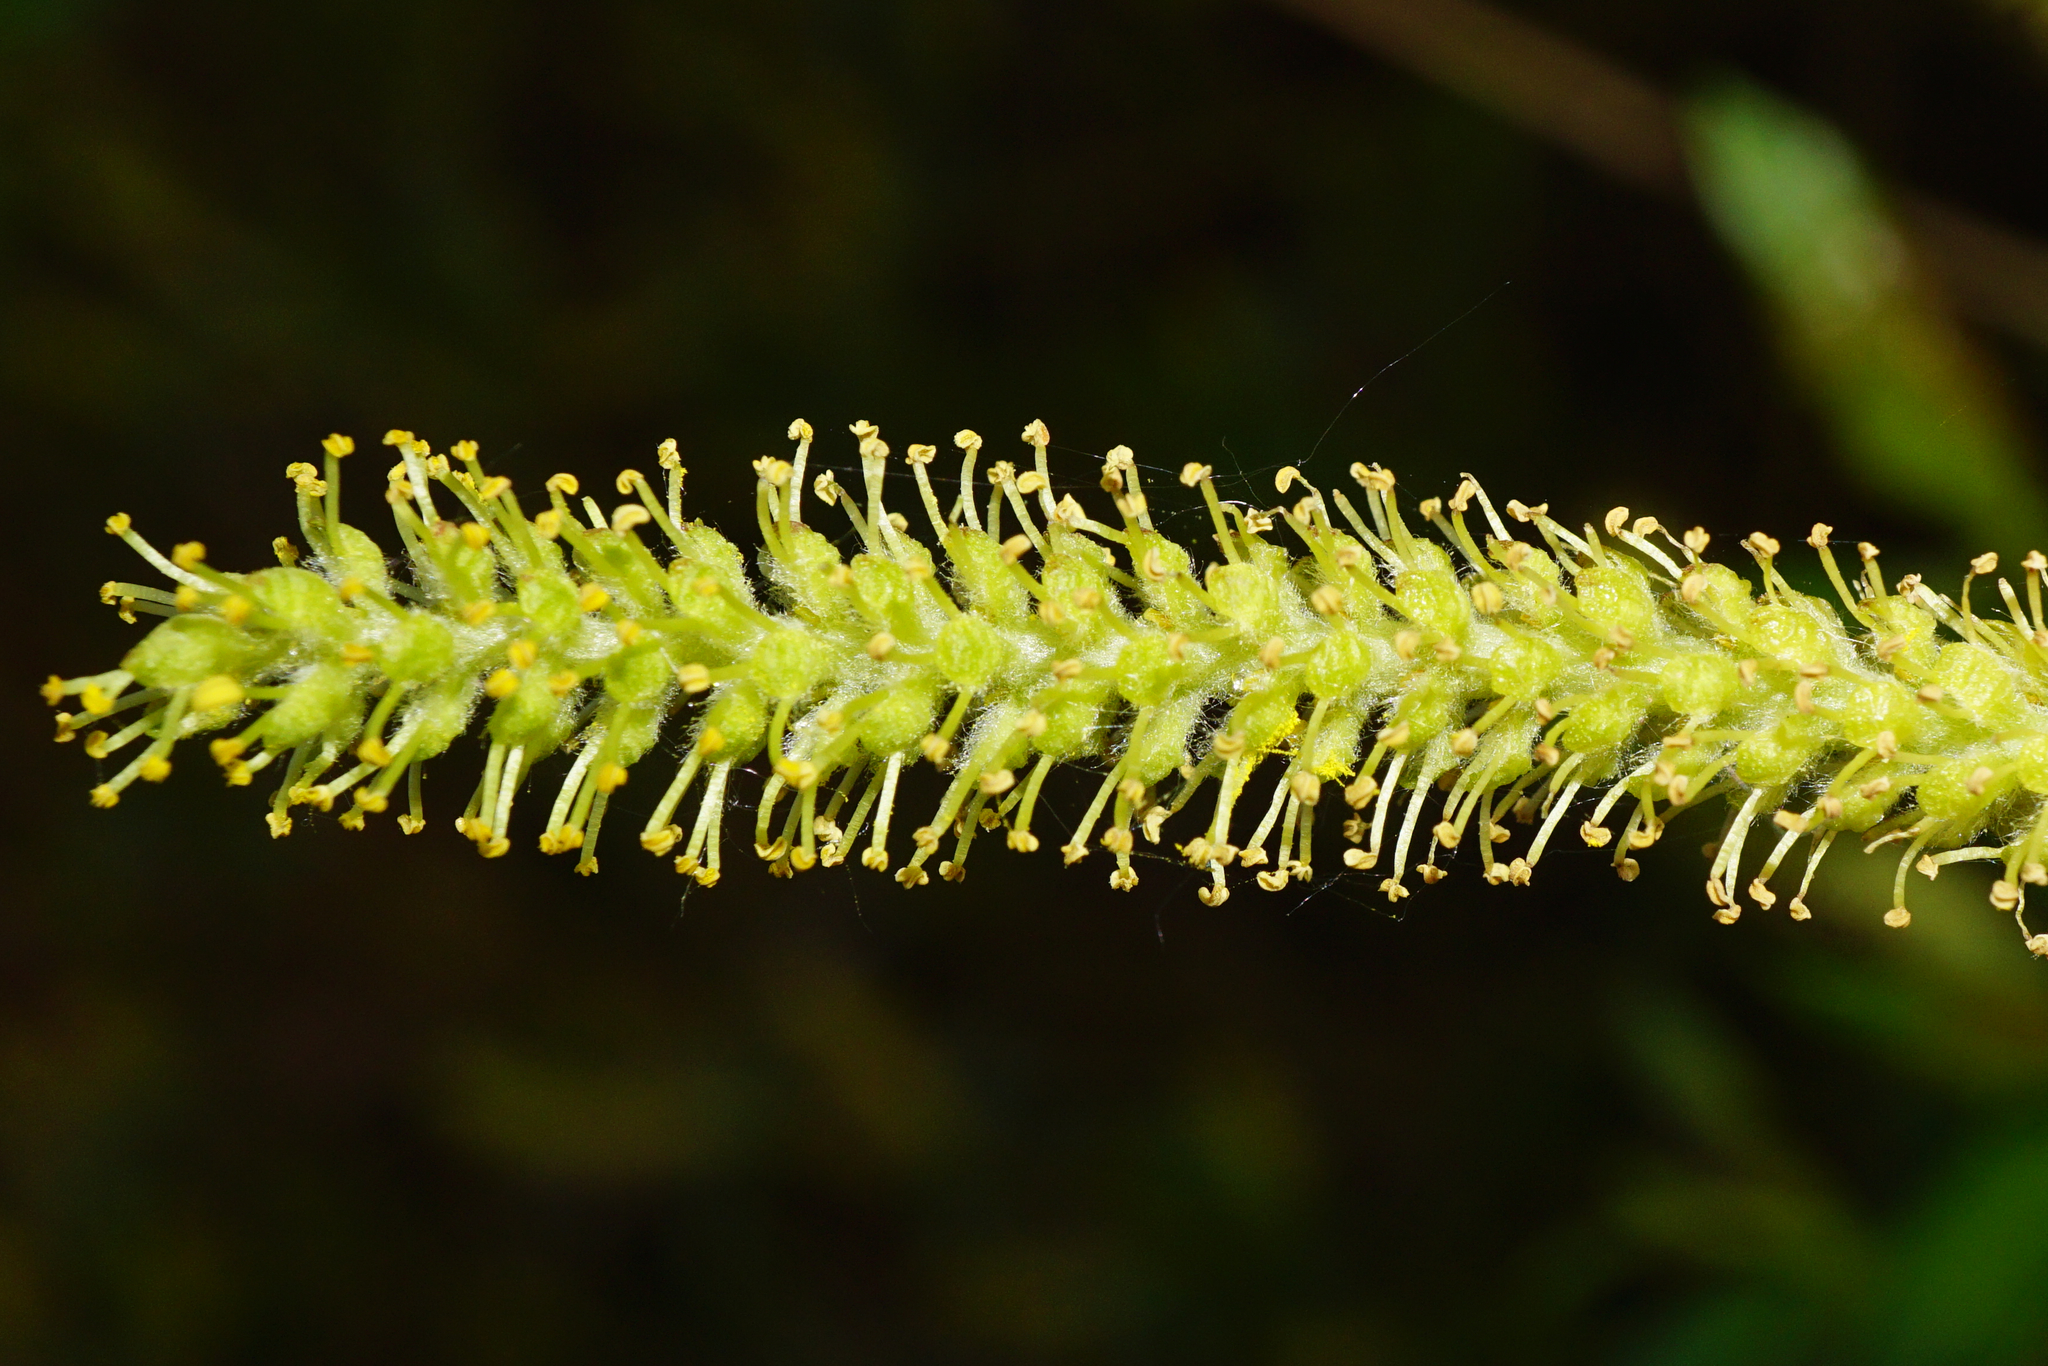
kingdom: Plantae
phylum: Tracheophyta
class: Magnoliopsida
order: Malpighiales
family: Salicaceae
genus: Salix
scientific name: Salix triandra
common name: Almond willow
